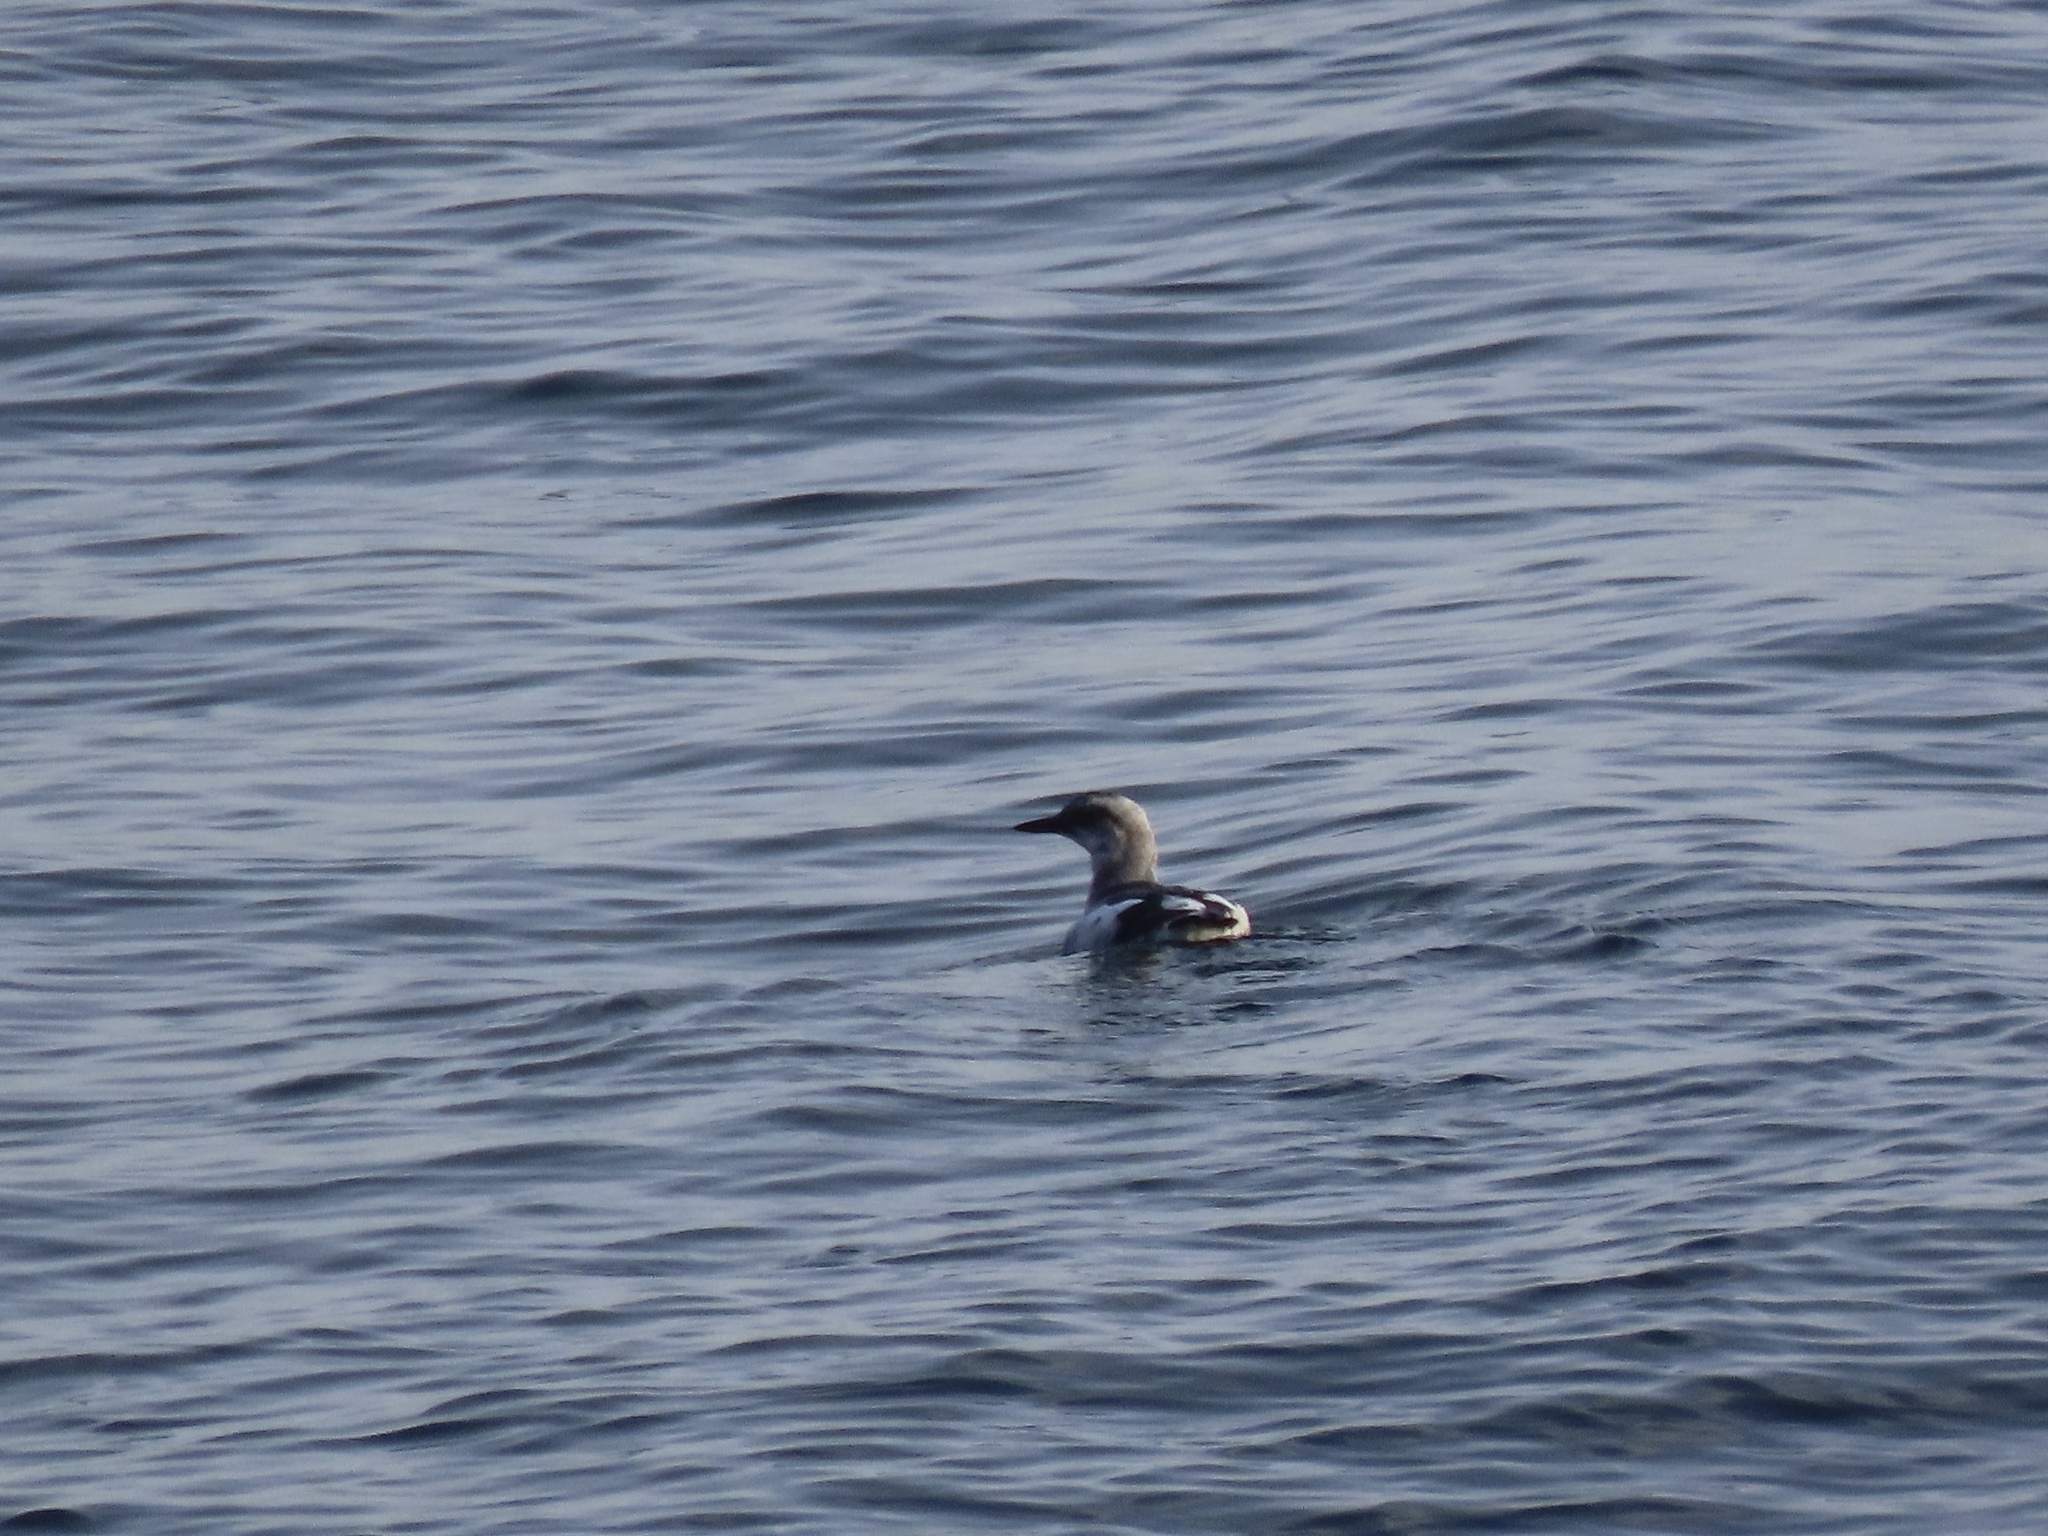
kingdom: Animalia
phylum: Chordata
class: Aves
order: Charadriiformes
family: Alcidae
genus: Cepphus
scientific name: Cepphus columba
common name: Pigeon guillemot
